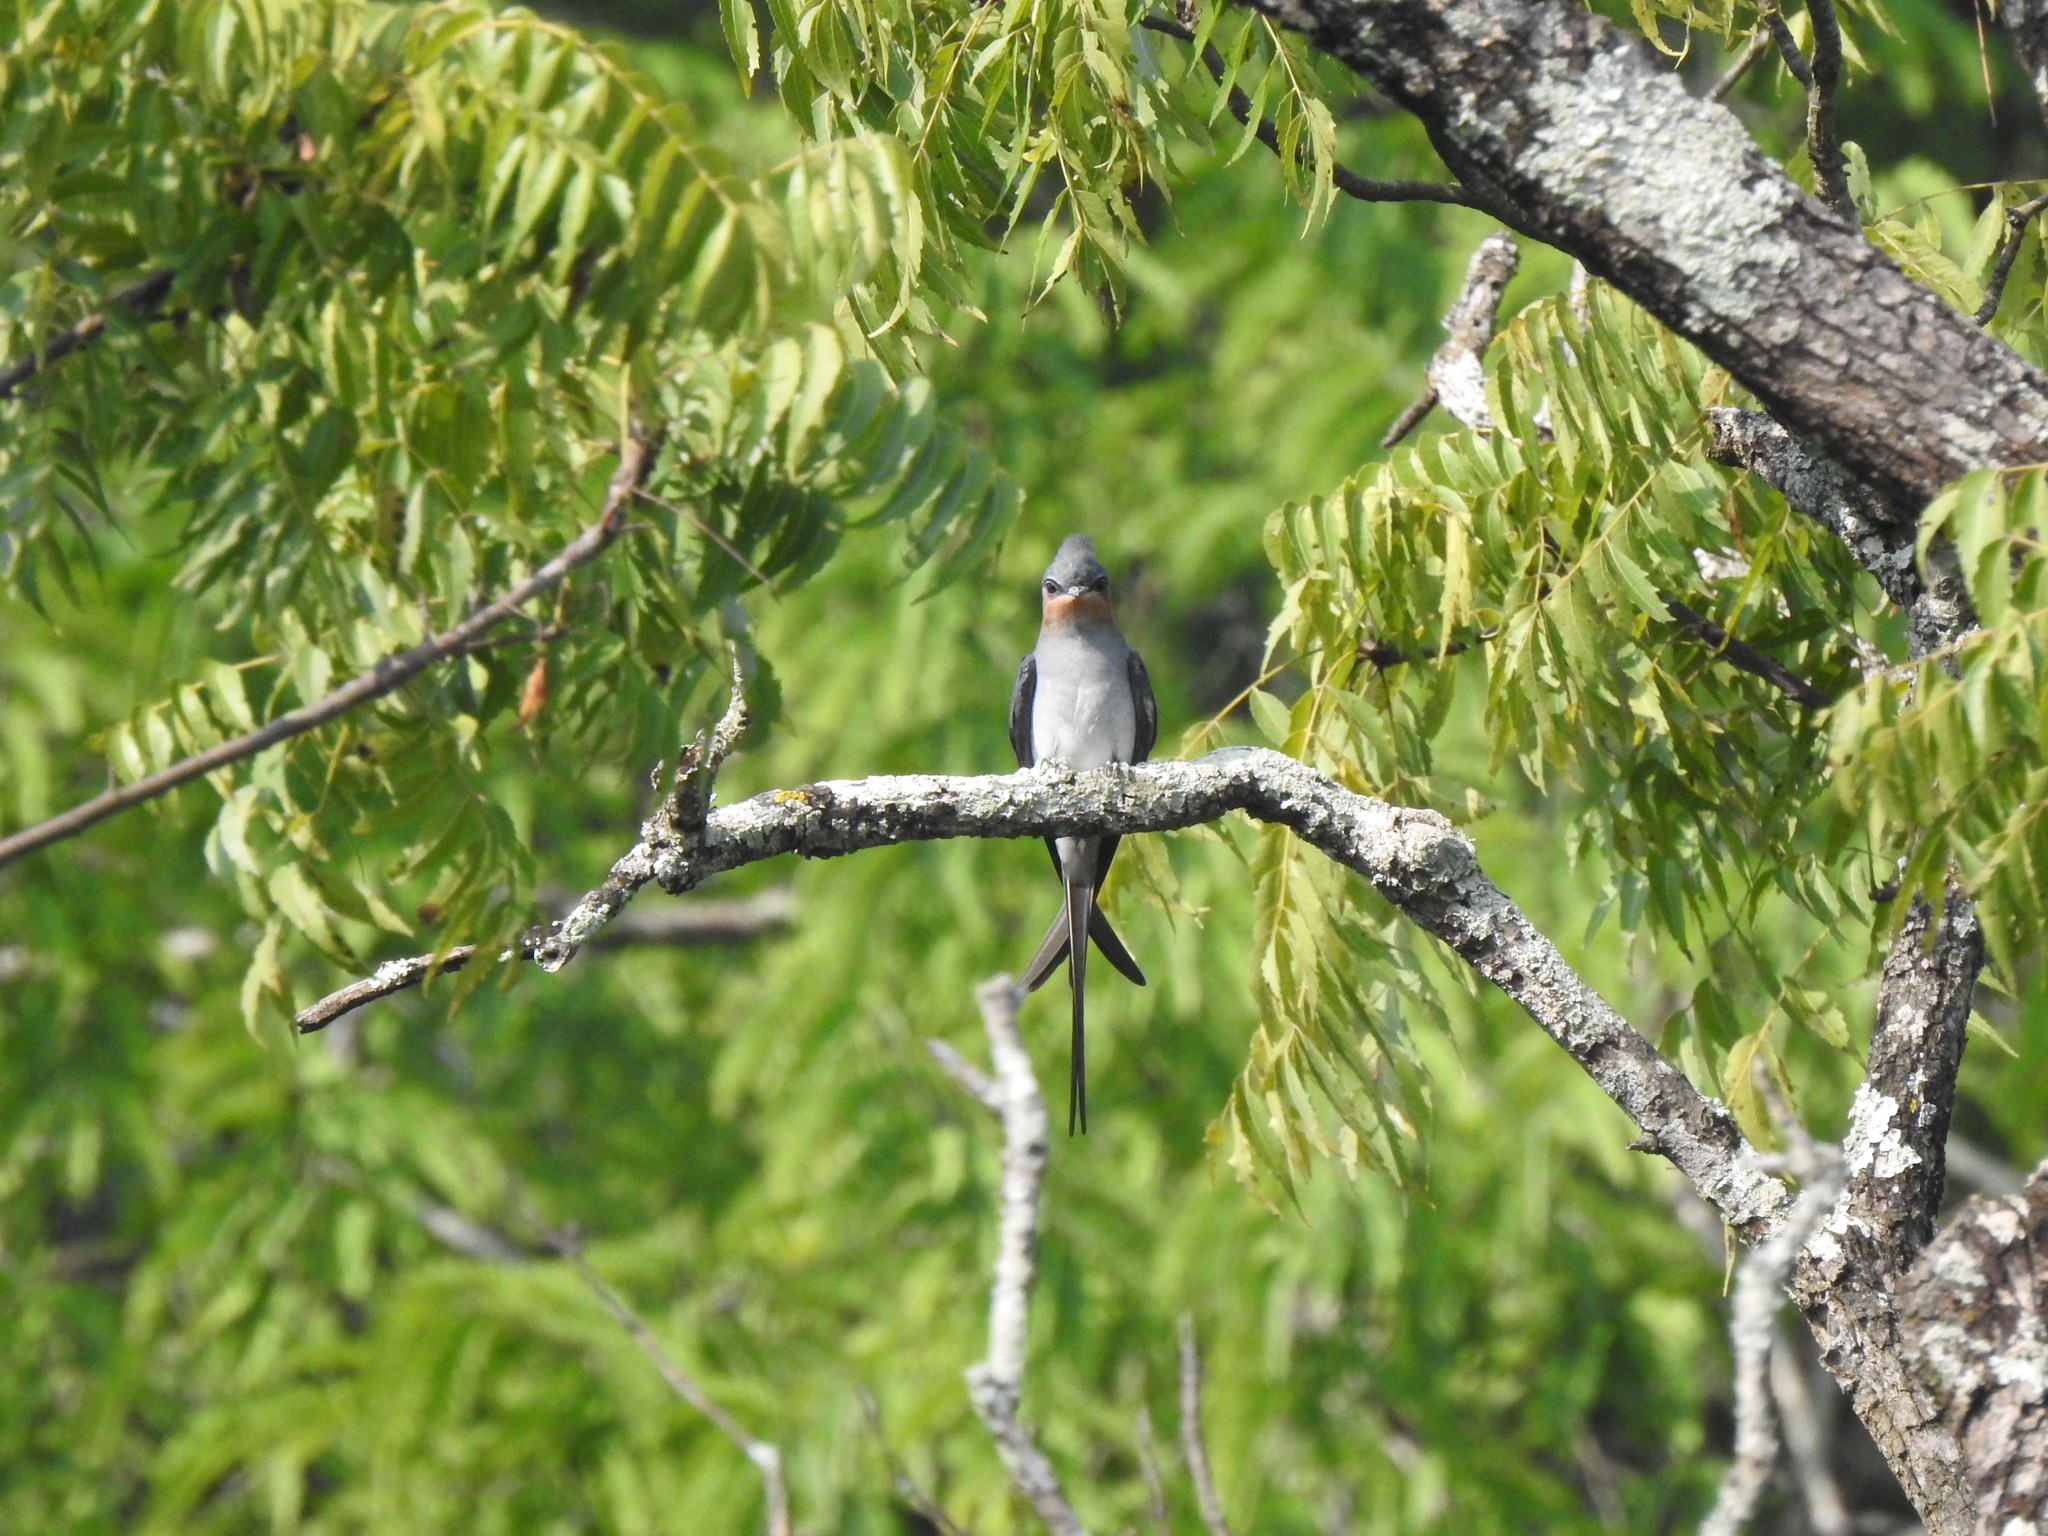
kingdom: Animalia
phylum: Chordata
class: Aves
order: Apodiformes
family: Hemiprocnidae
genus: Hemiprocne
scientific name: Hemiprocne coronata
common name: Crested treeswift
